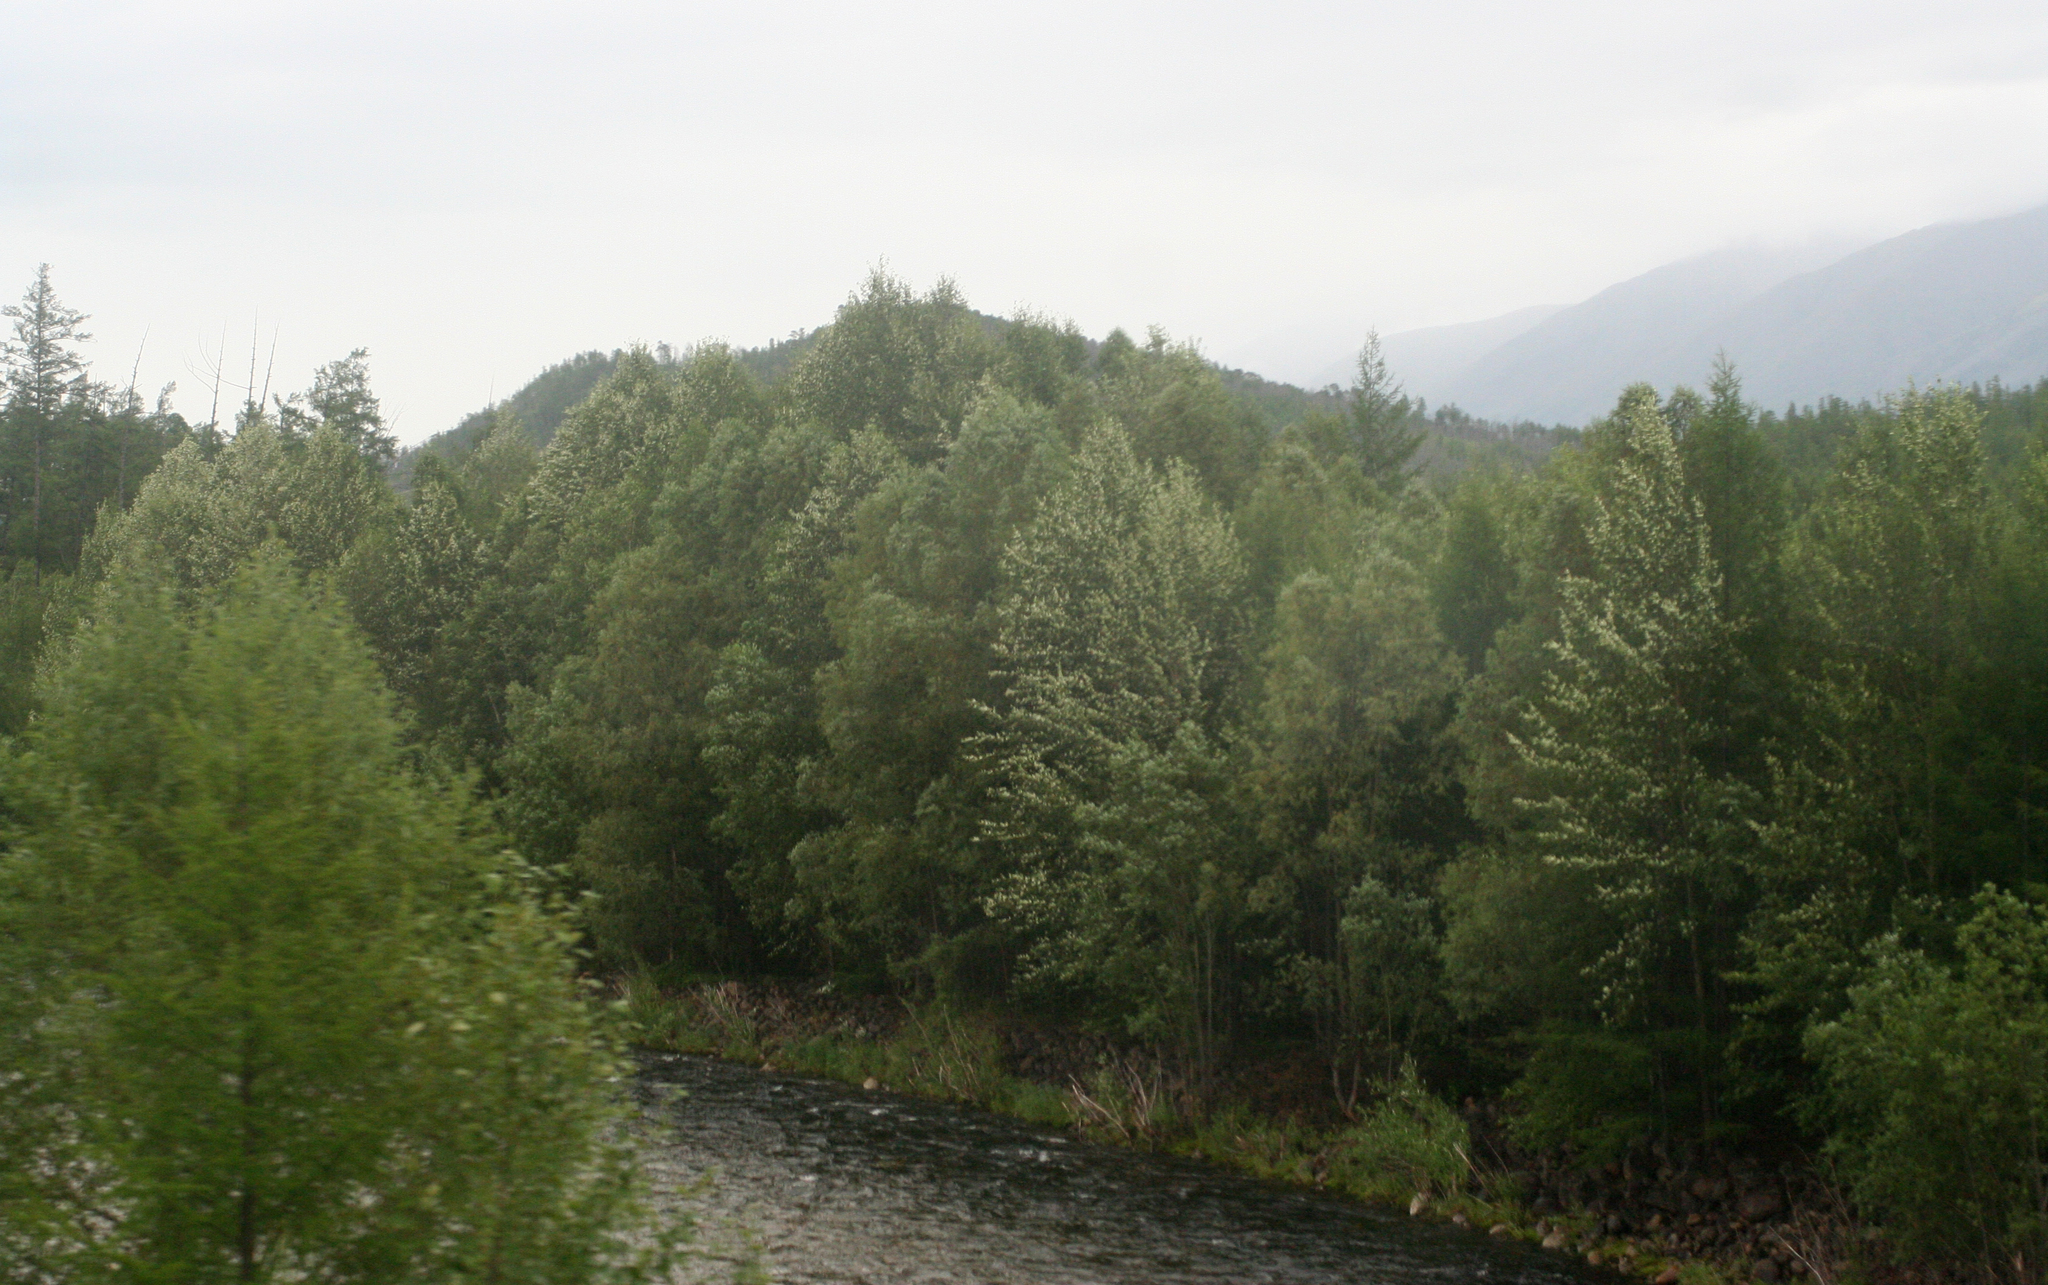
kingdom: Plantae
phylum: Tracheophyta
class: Magnoliopsida
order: Malpighiales
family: Salicaceae
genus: Populus
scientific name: Populus suaveolens
